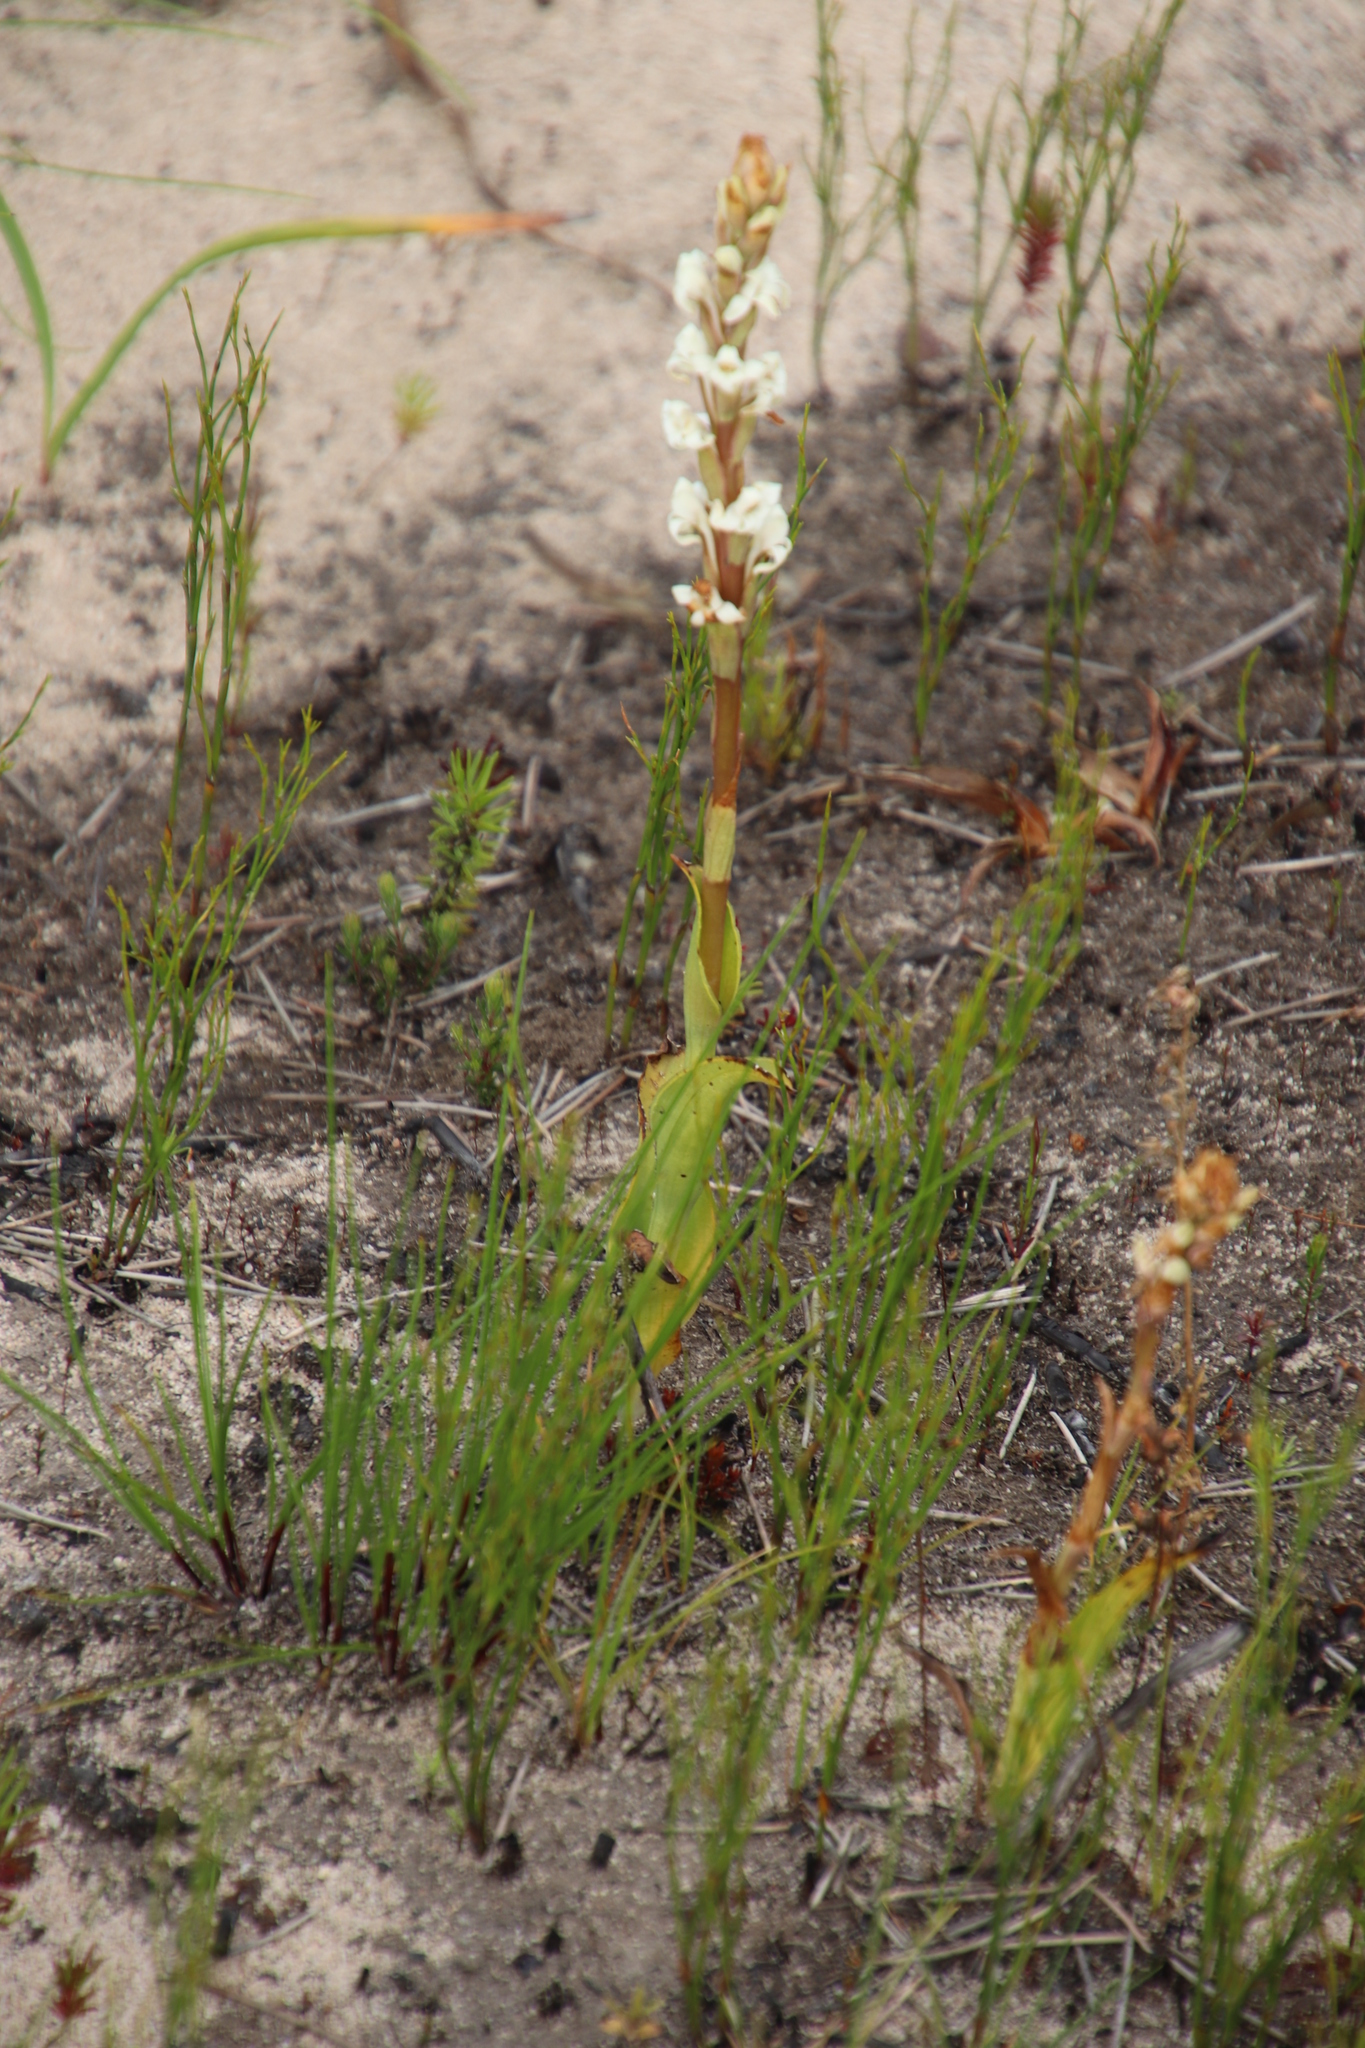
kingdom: Plantae
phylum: Tracheophyta
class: Liliopsida
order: Asparagales
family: Orchidaceae
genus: Satyrium
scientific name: Satyrium stenopetalum
